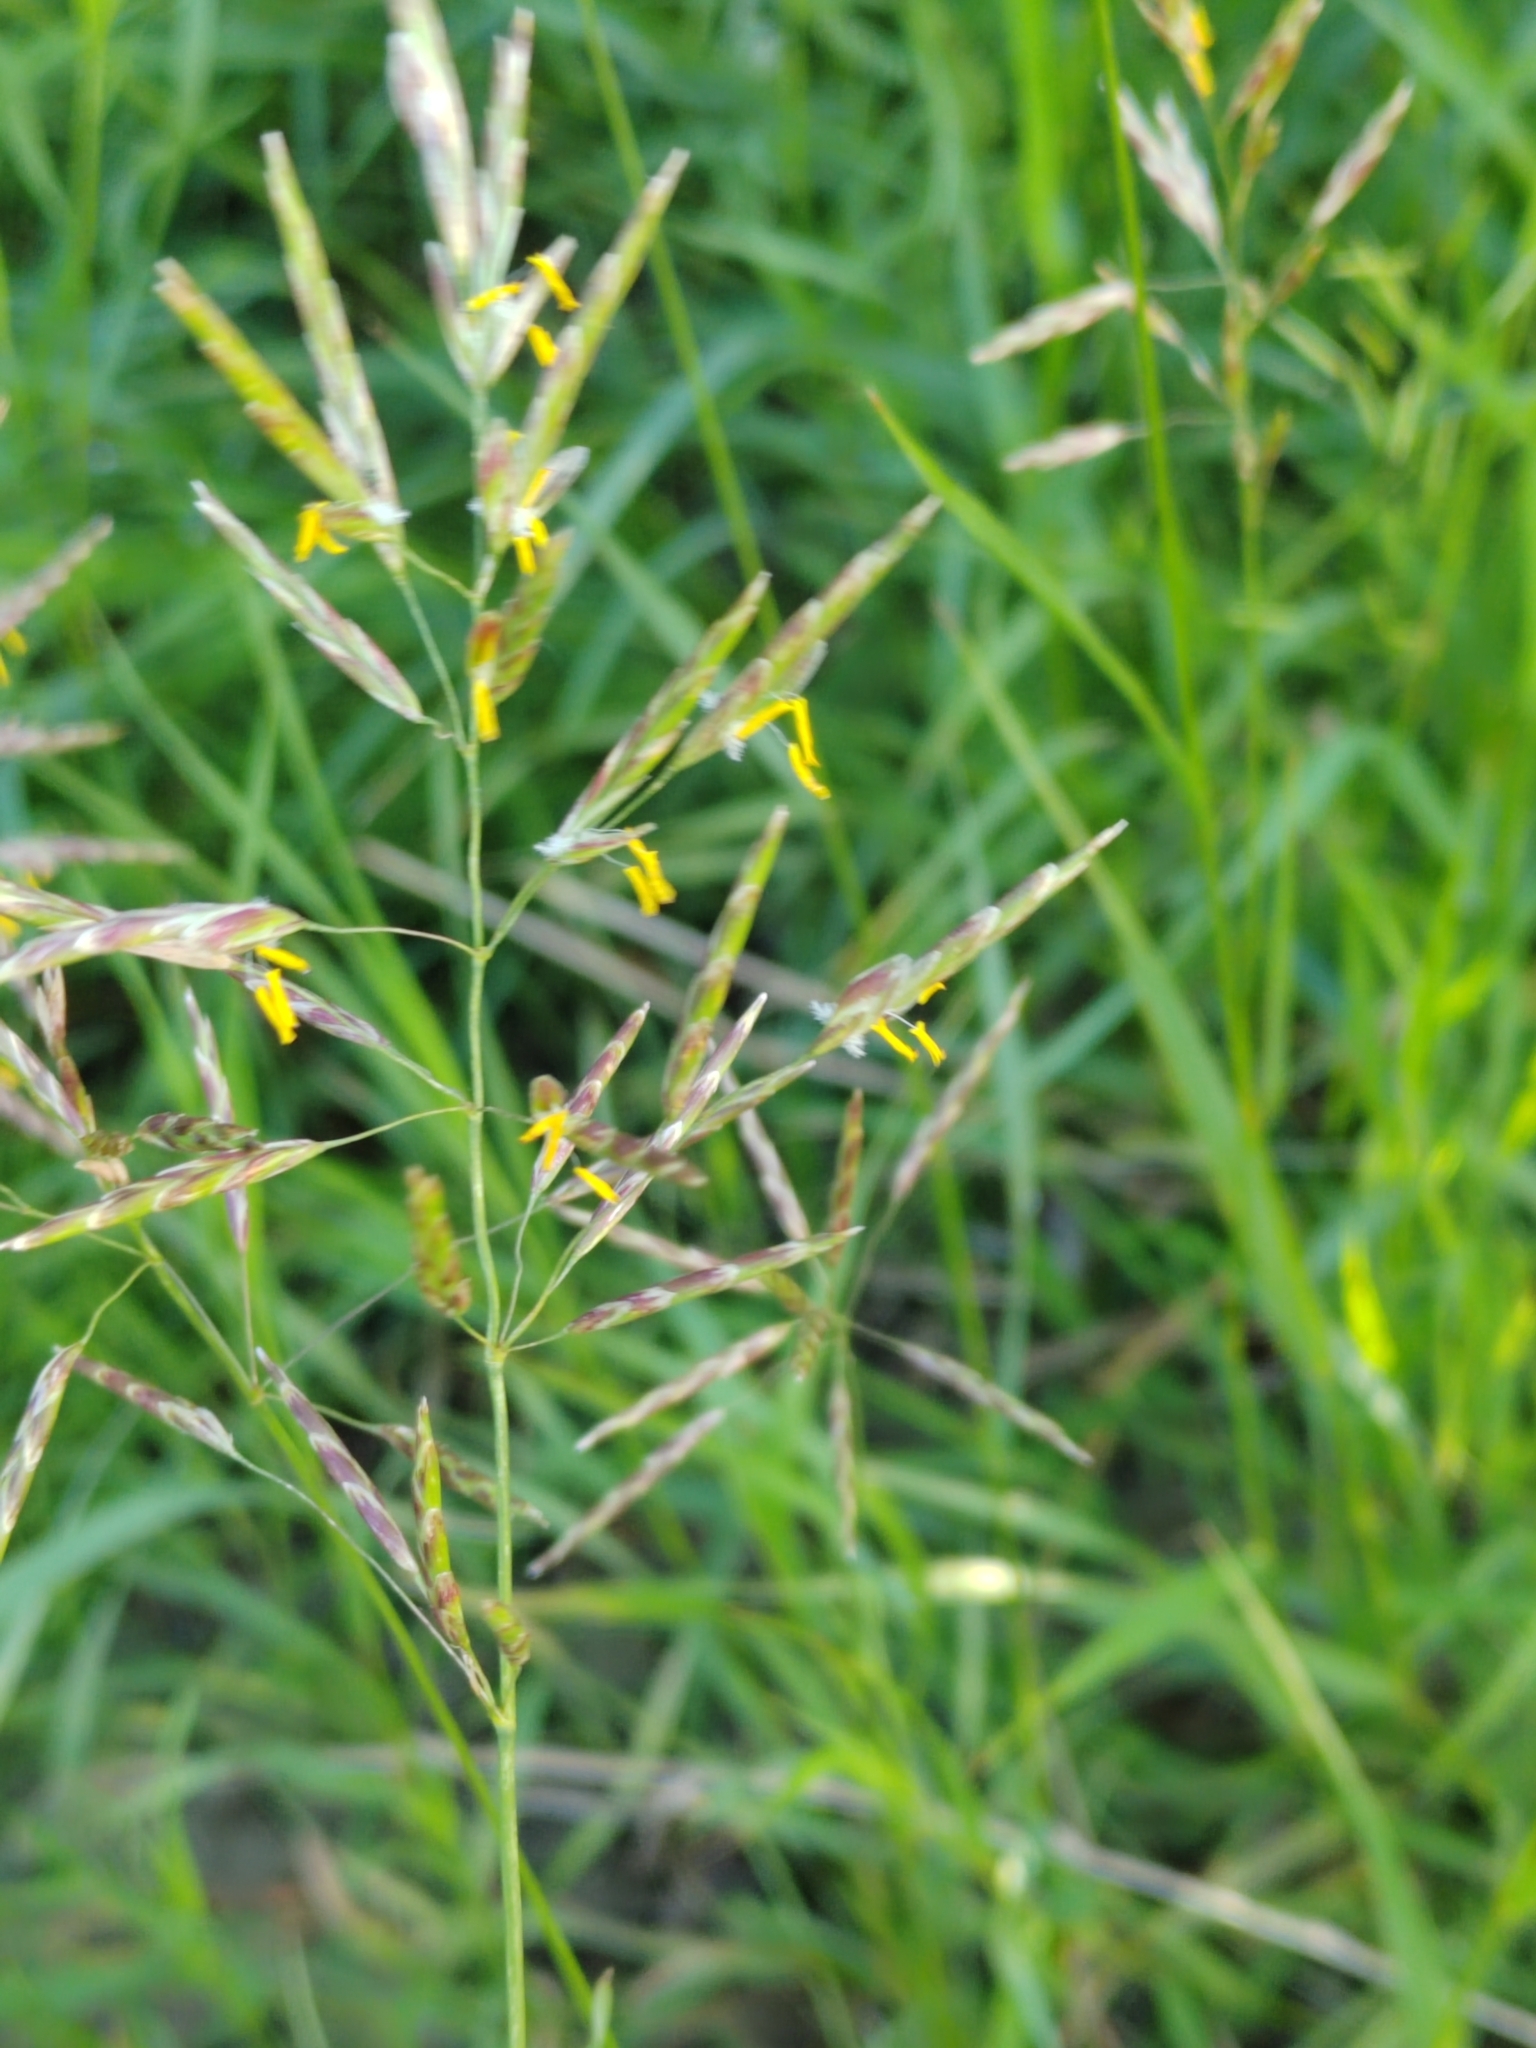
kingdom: Plantae
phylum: Tracheophyta
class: Liliopsida
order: Poales
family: Poaceae
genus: Bromus
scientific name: Bromus inermis
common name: Smooth brome
